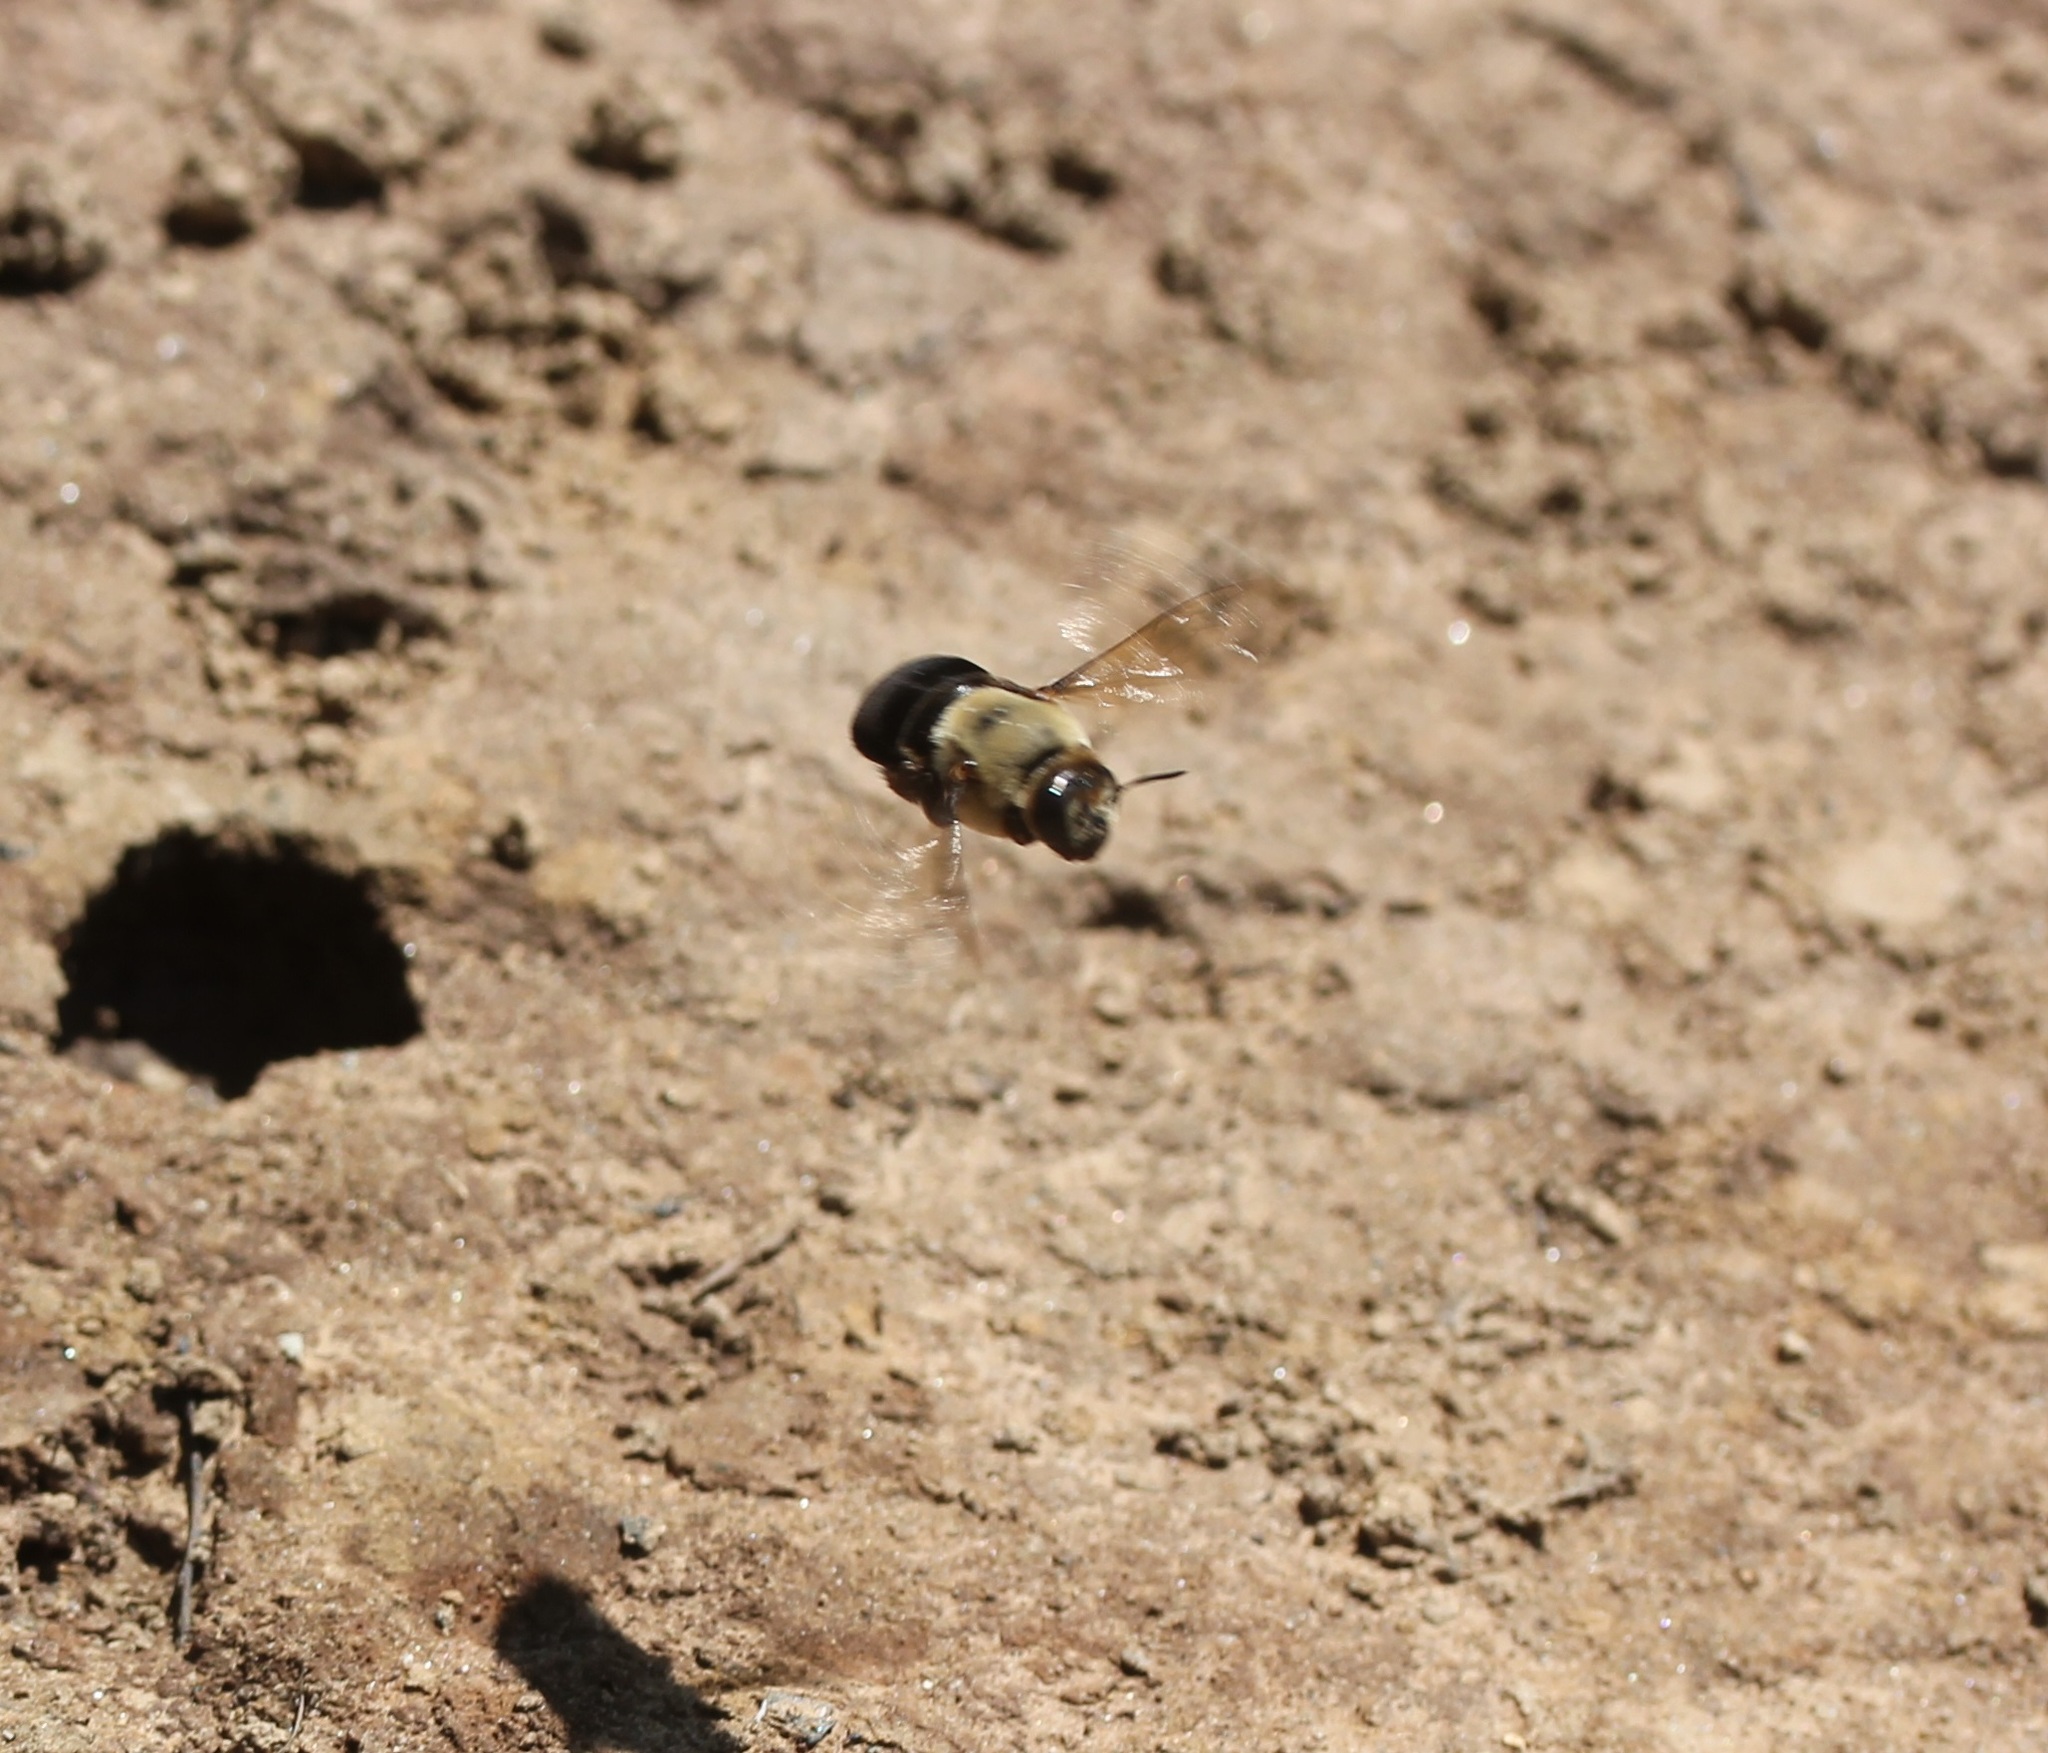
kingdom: Animalia
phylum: Arthropoda
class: Insecta
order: Hymenoptera
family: Apidae
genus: Ptilothrix
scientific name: Ptilothrix bombiformis
